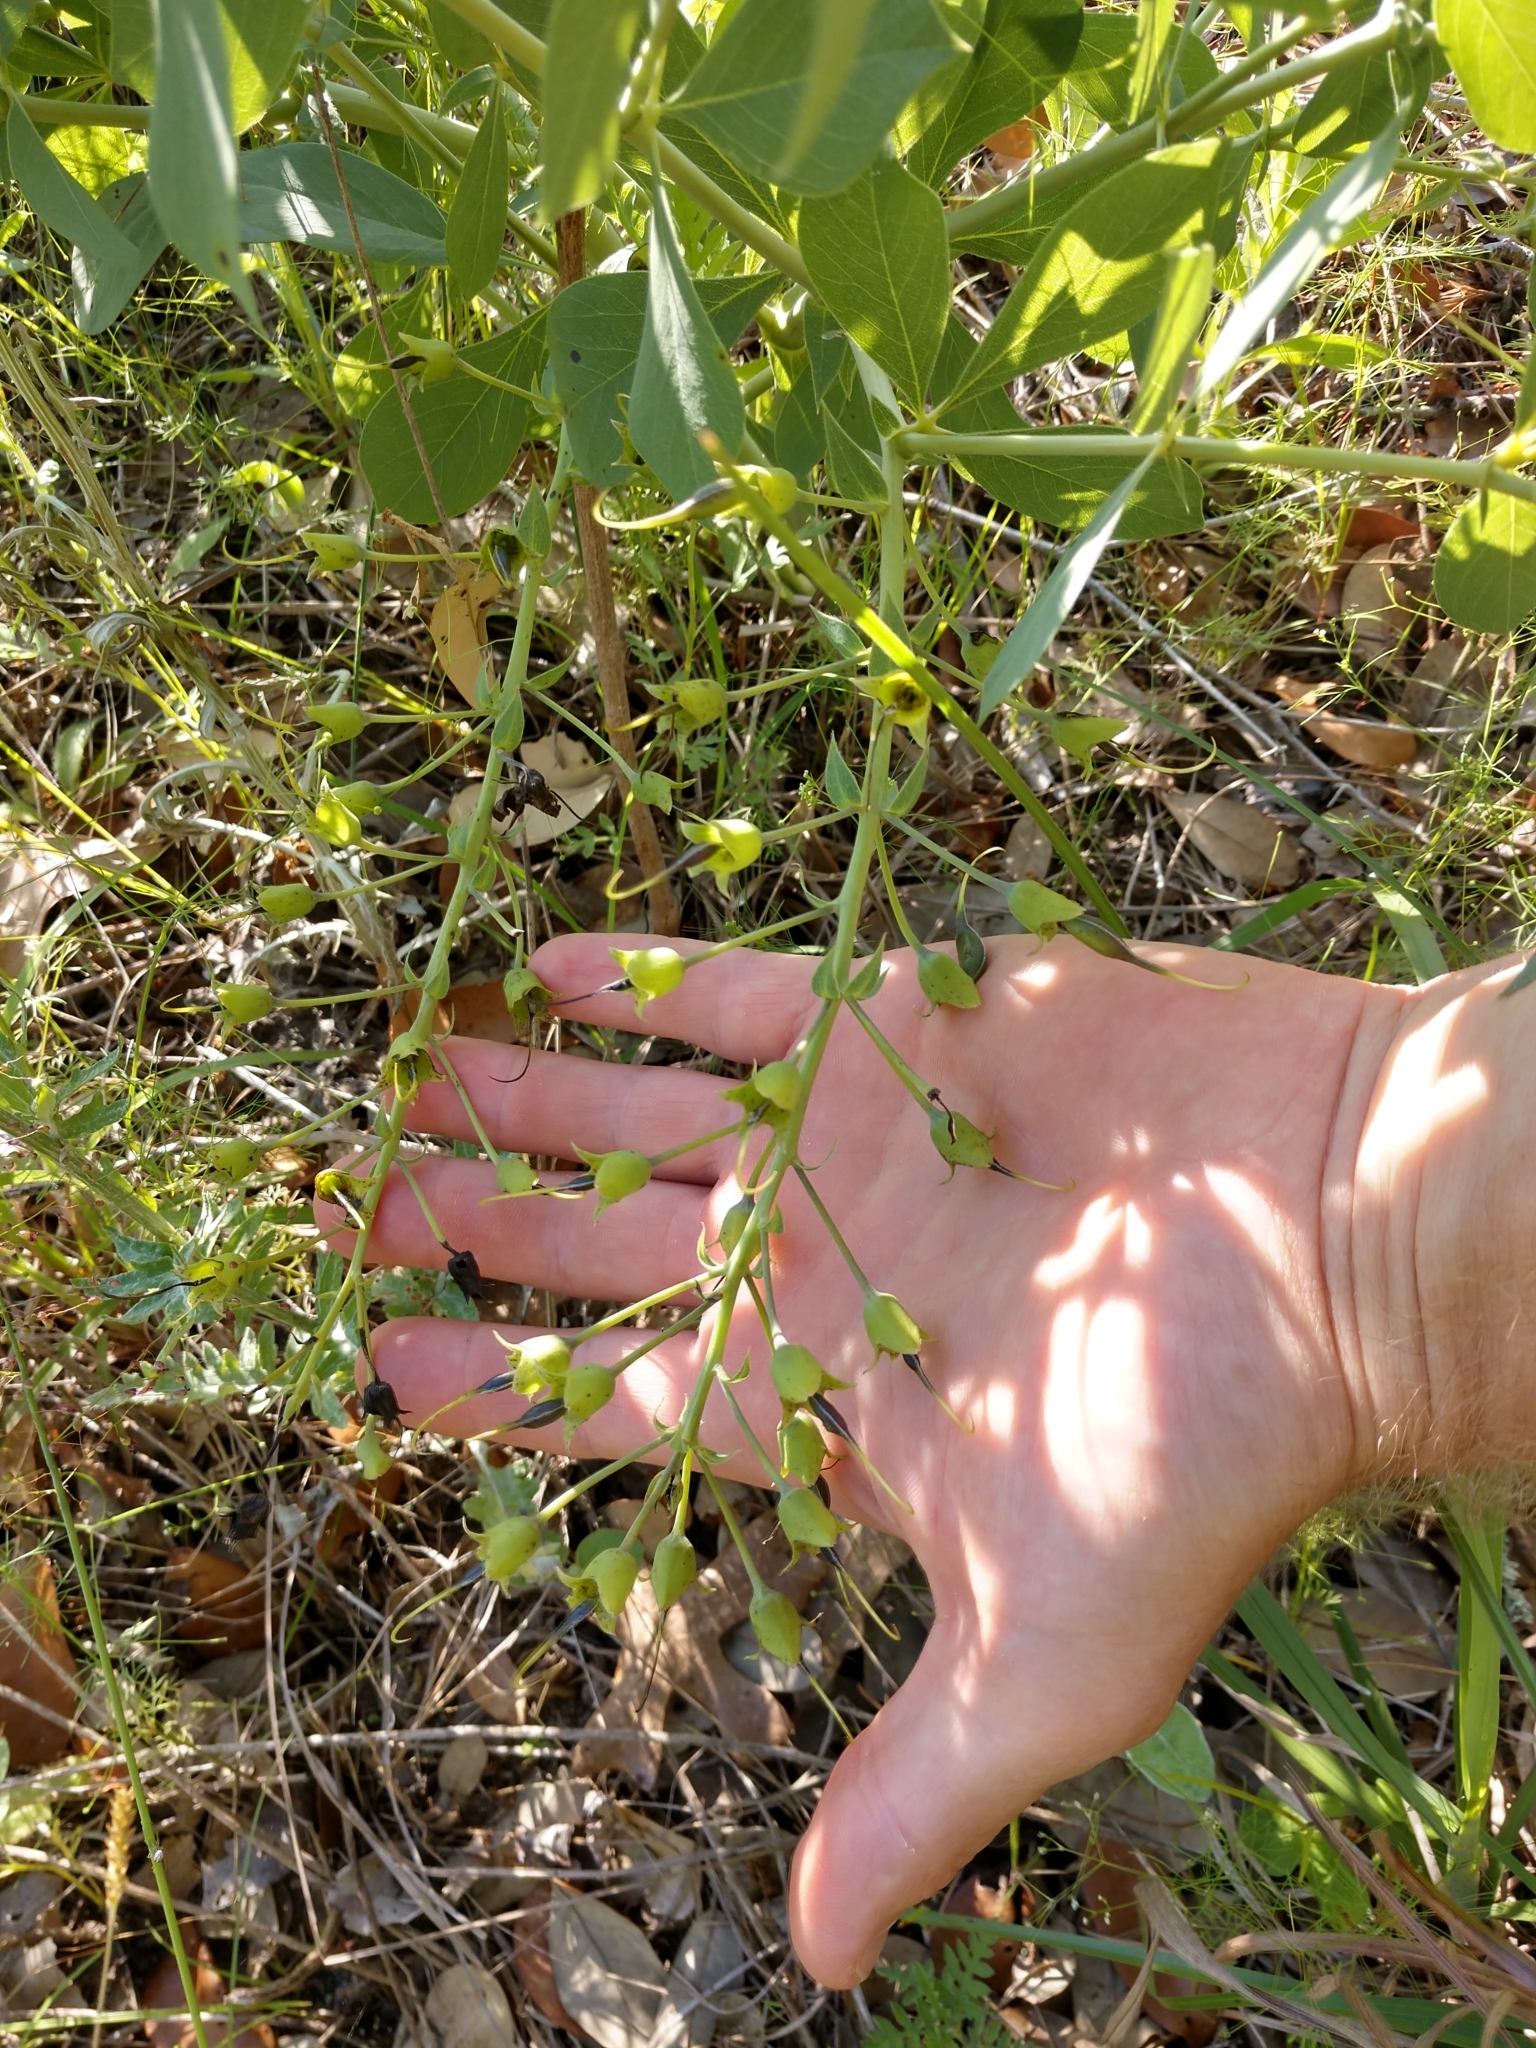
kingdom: Plantae
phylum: Tracheophyta
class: Magnoliopsida
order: Fabales
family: Fabaceae
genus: Baptisia
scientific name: Baptisia bracteata
